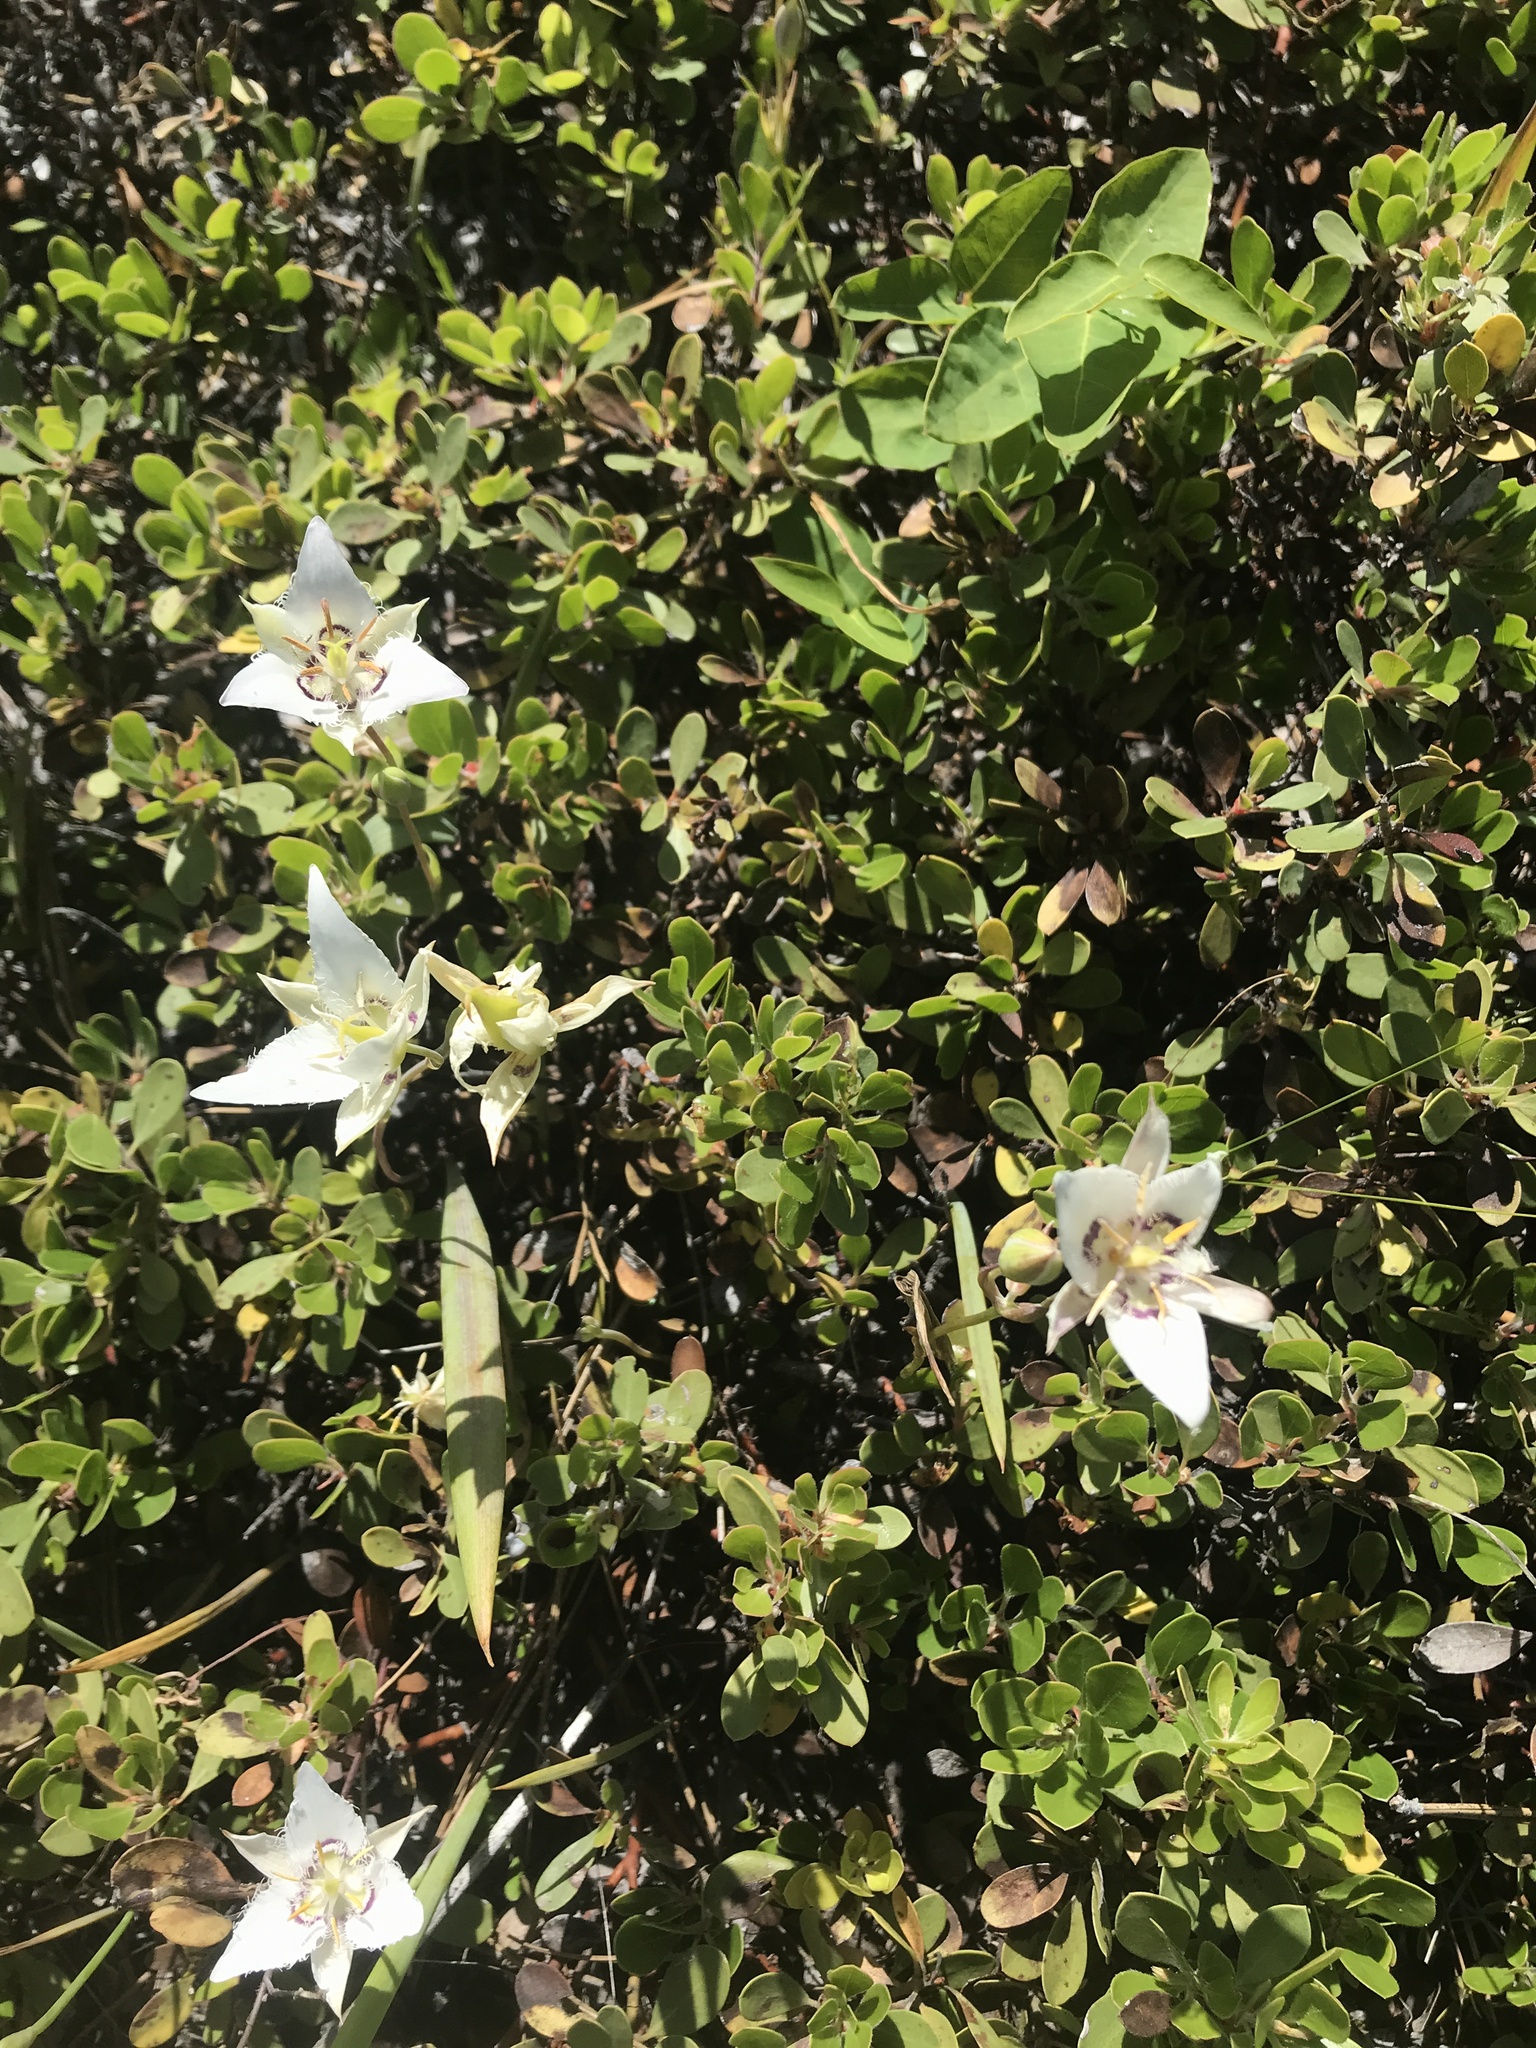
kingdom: Plantae
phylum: Tracheophyta
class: Liliopsida
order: Liliales
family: Liliaceae
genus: Calochortus
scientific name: Calochortus lyallii
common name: Lyall's mariposa lily
